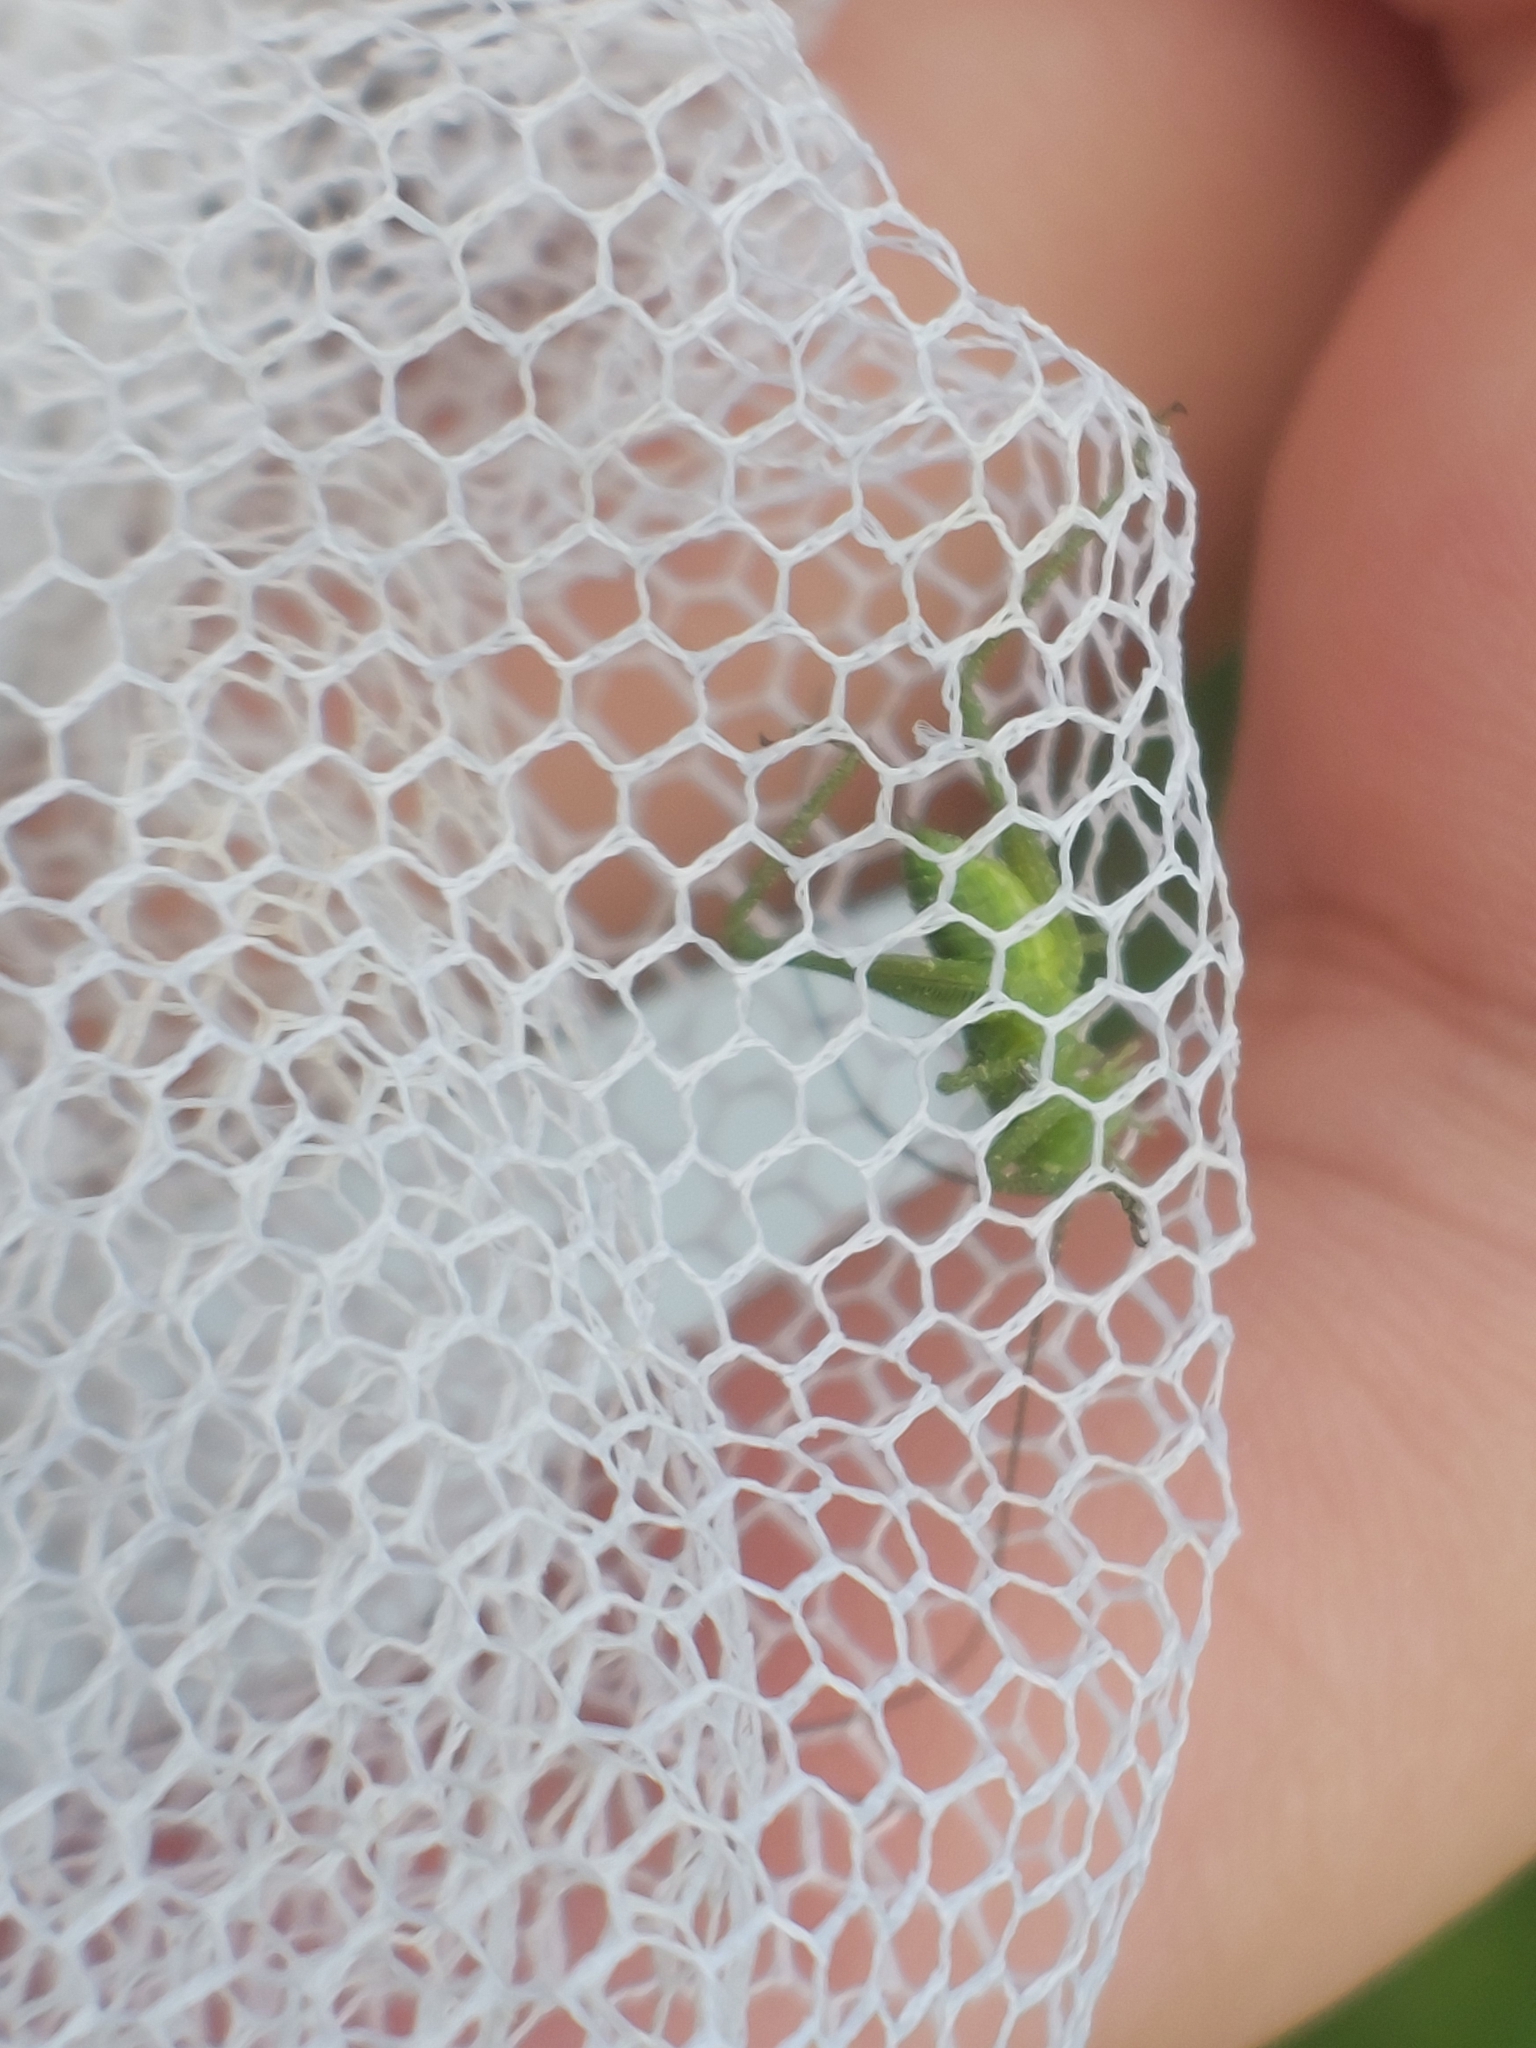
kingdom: Animalia
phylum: Arthropoda
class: Insecta
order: Orthoptera
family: Tettigoniidae
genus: Tettigonia
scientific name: Tettigonia viridissima
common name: Great green bush-cricket
